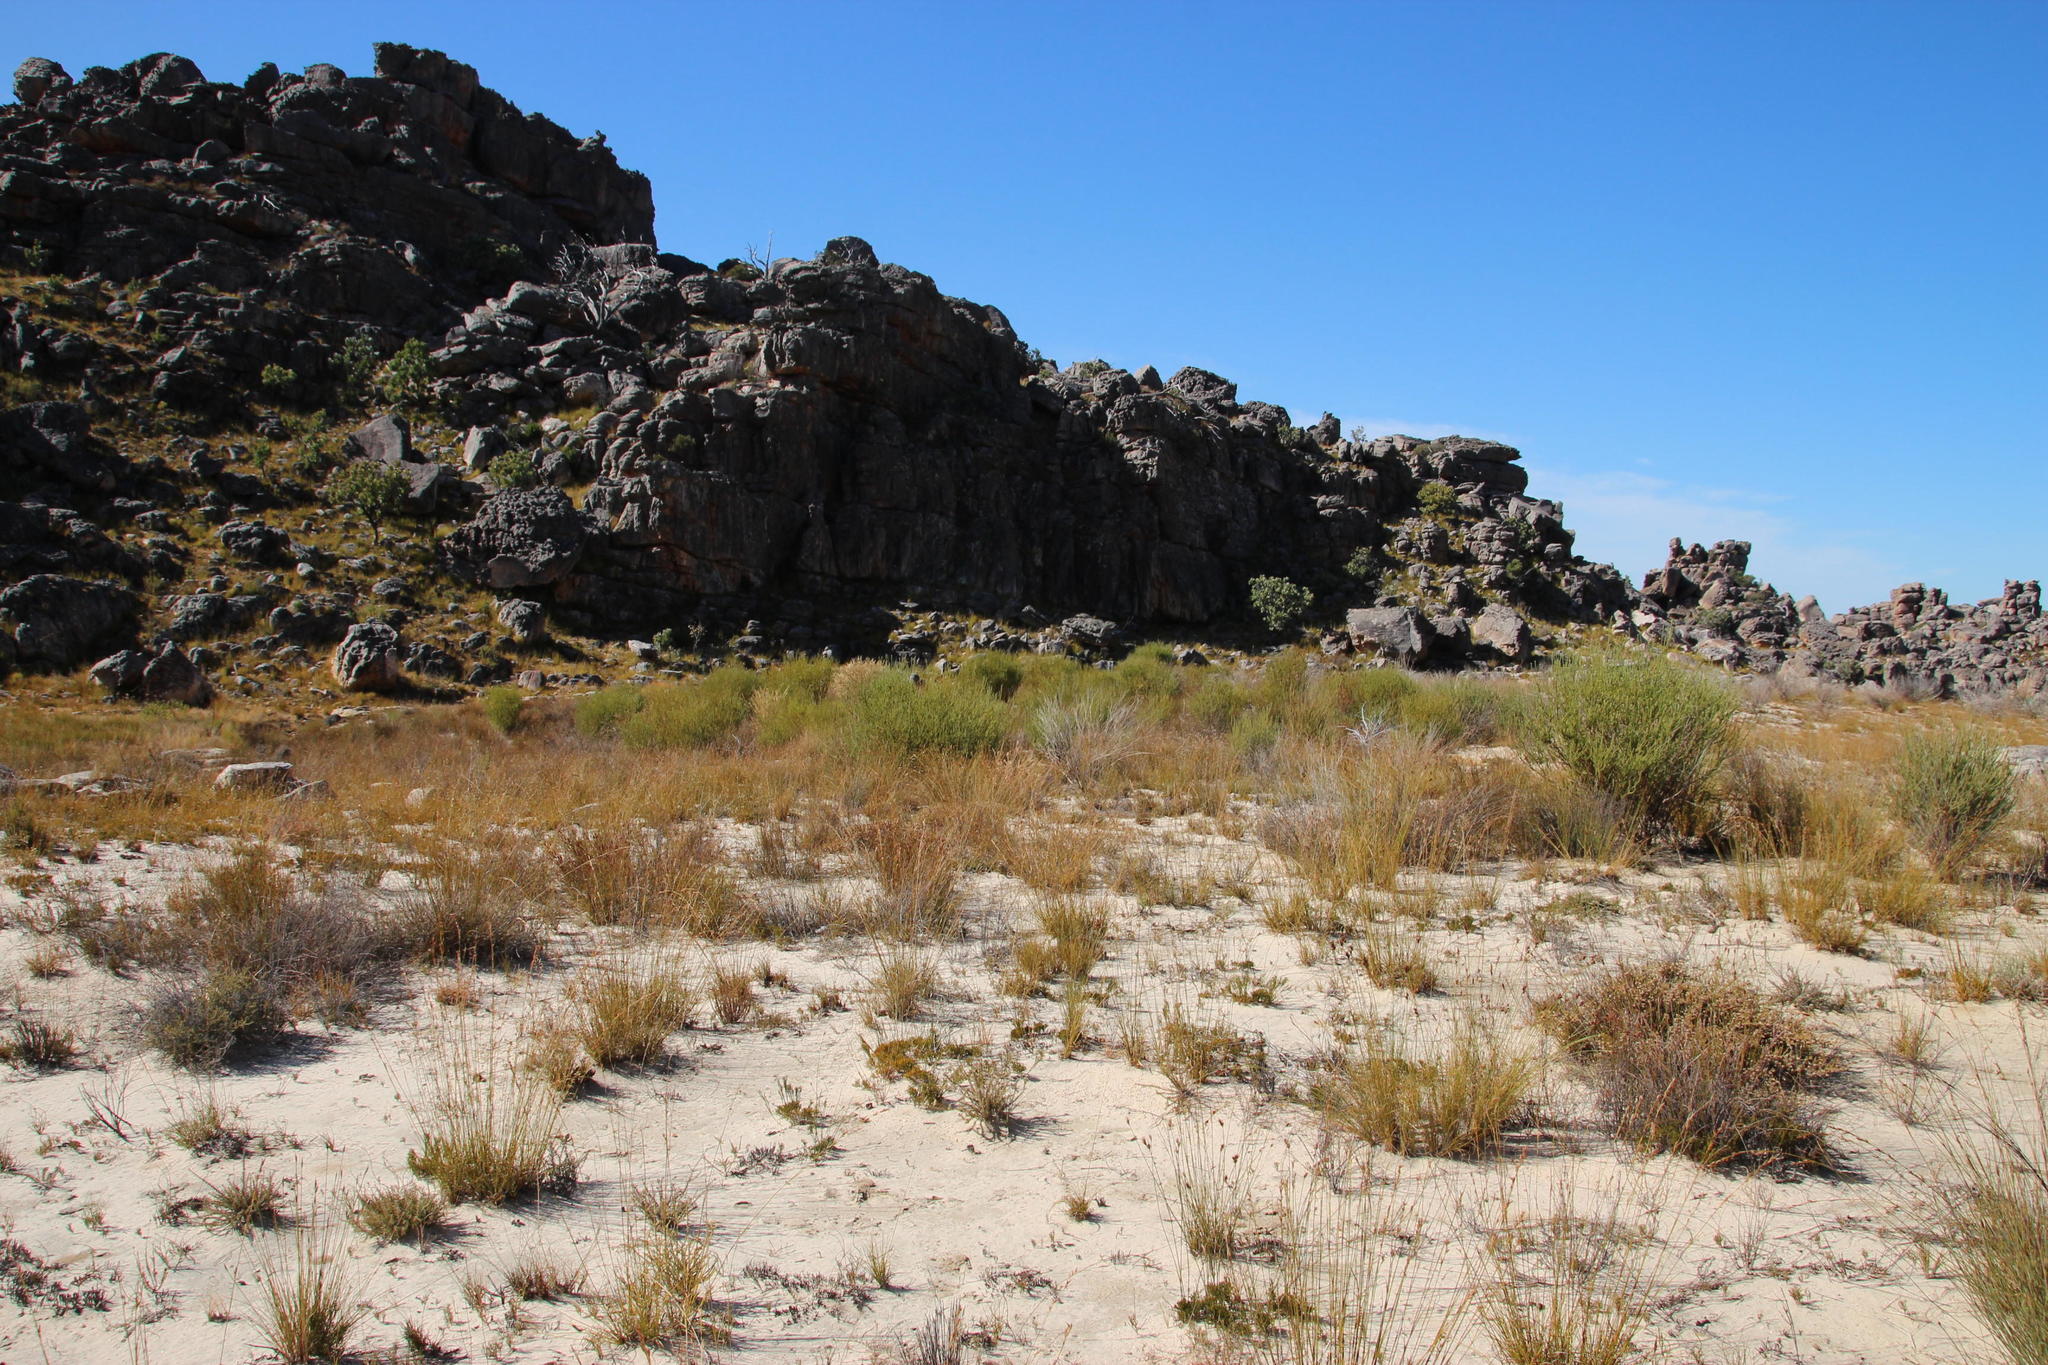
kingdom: Plantae
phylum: Tracheophyta
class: Magnoliopsida
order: Proteales
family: Proteaceae
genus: Leucadendron
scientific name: Leucadendron dubium
